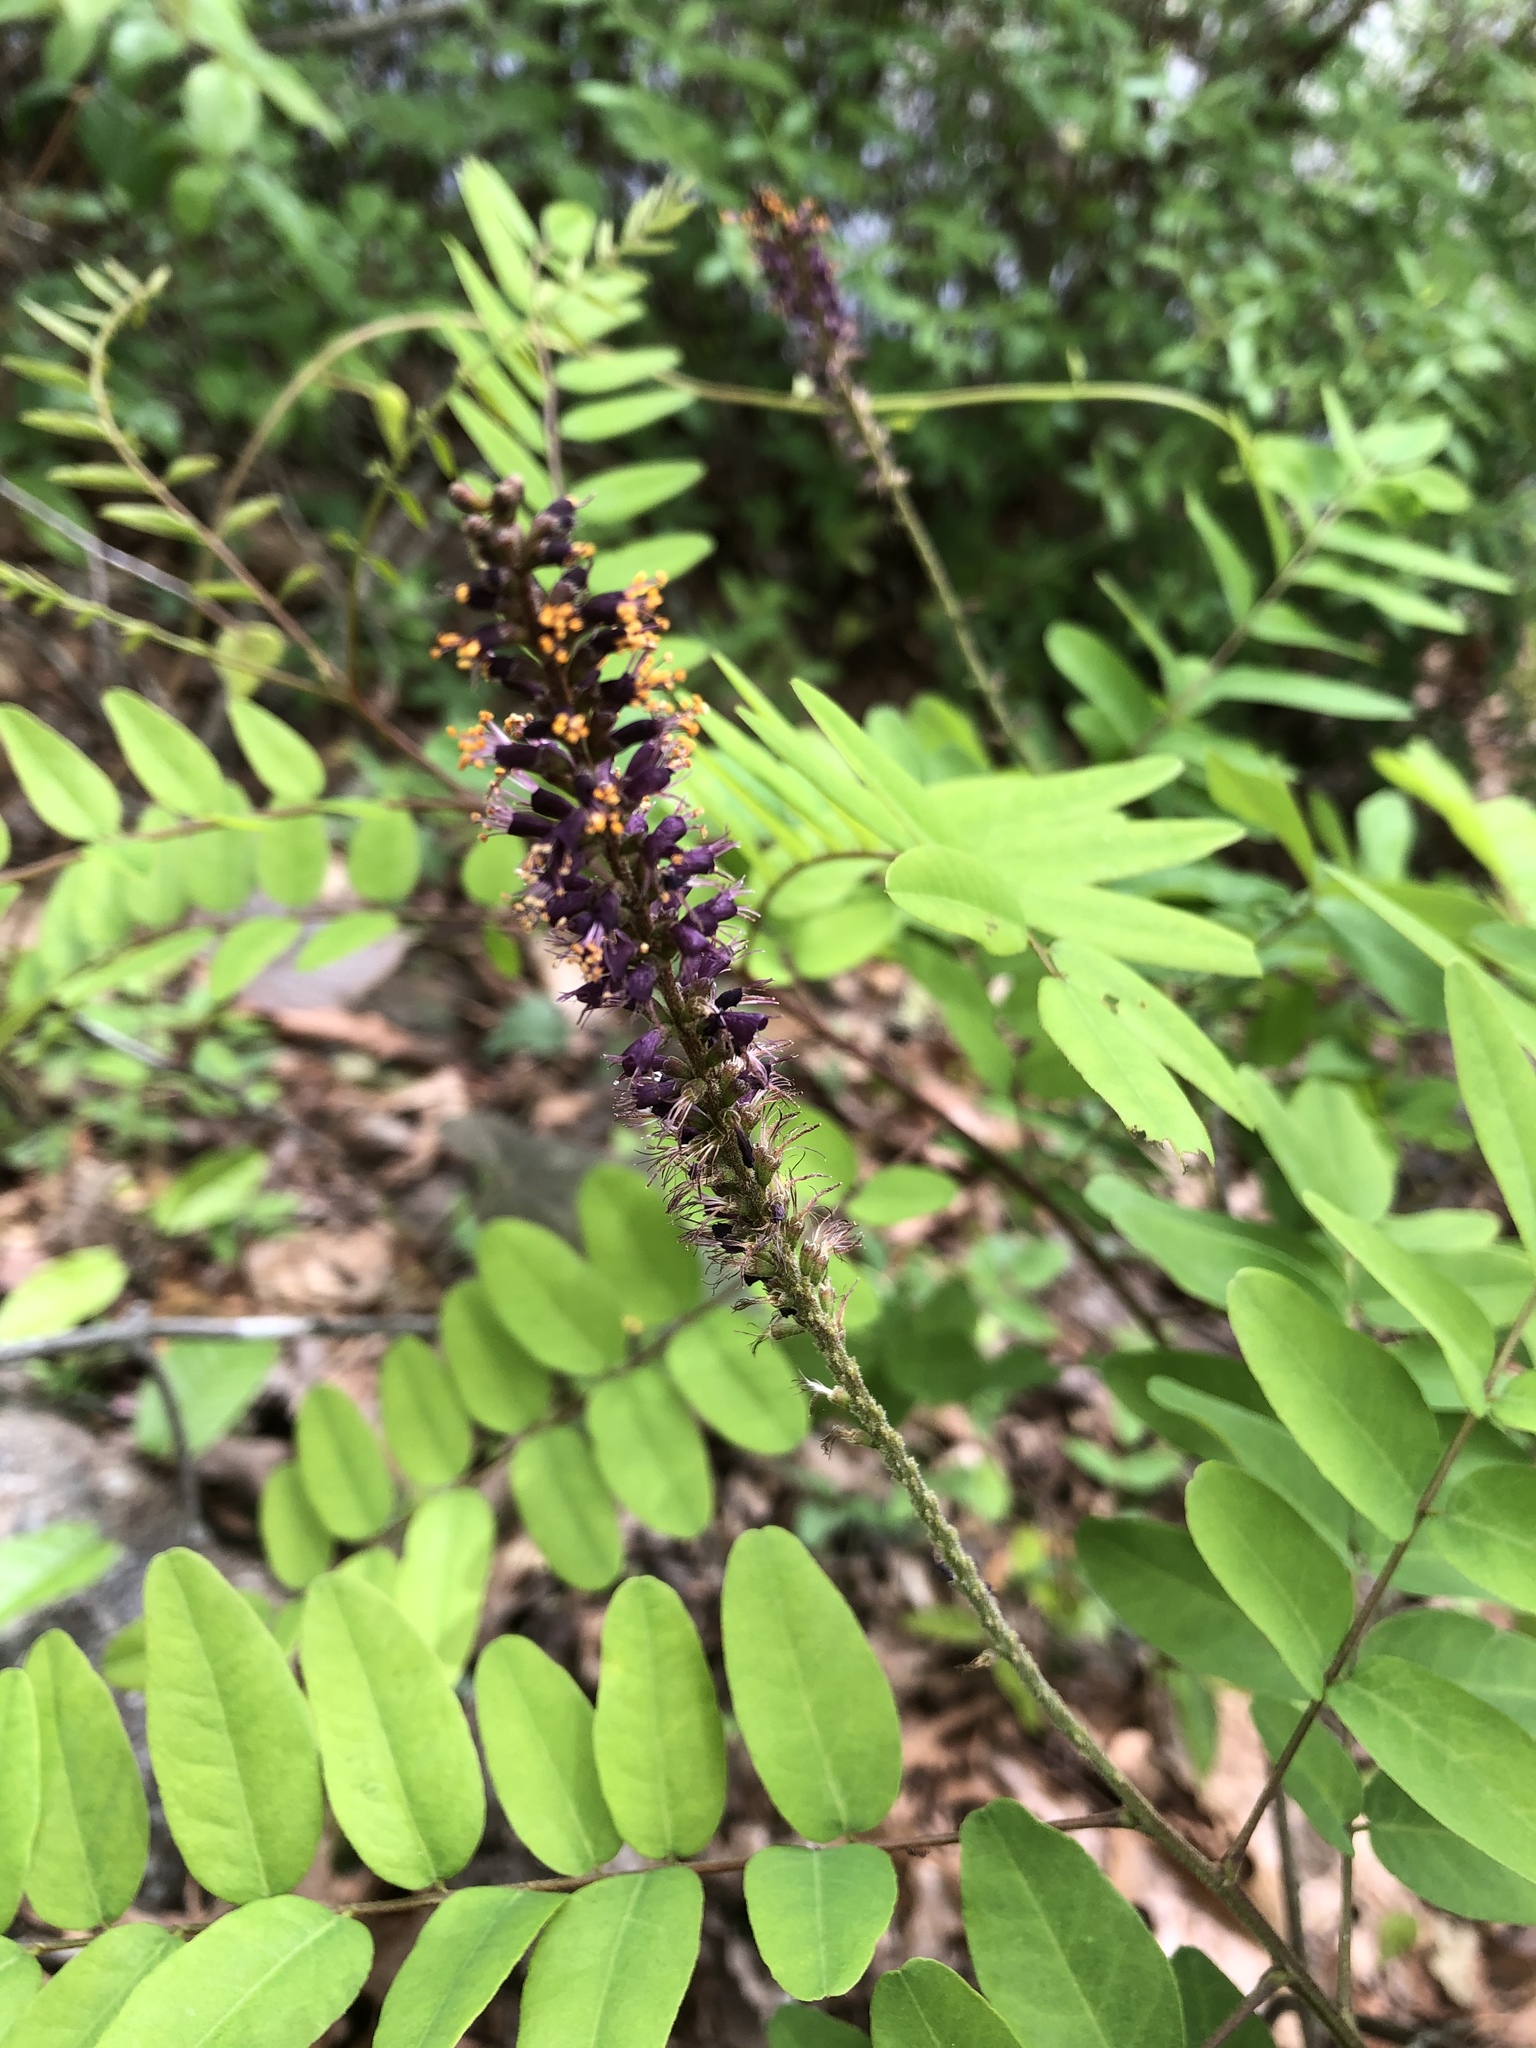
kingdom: Plantae
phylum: Tracheophyta
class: Magnoliopsida
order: Fabales
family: Fabaceae
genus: Amorpha
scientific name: Amorpha fruticosa
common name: False indigo
